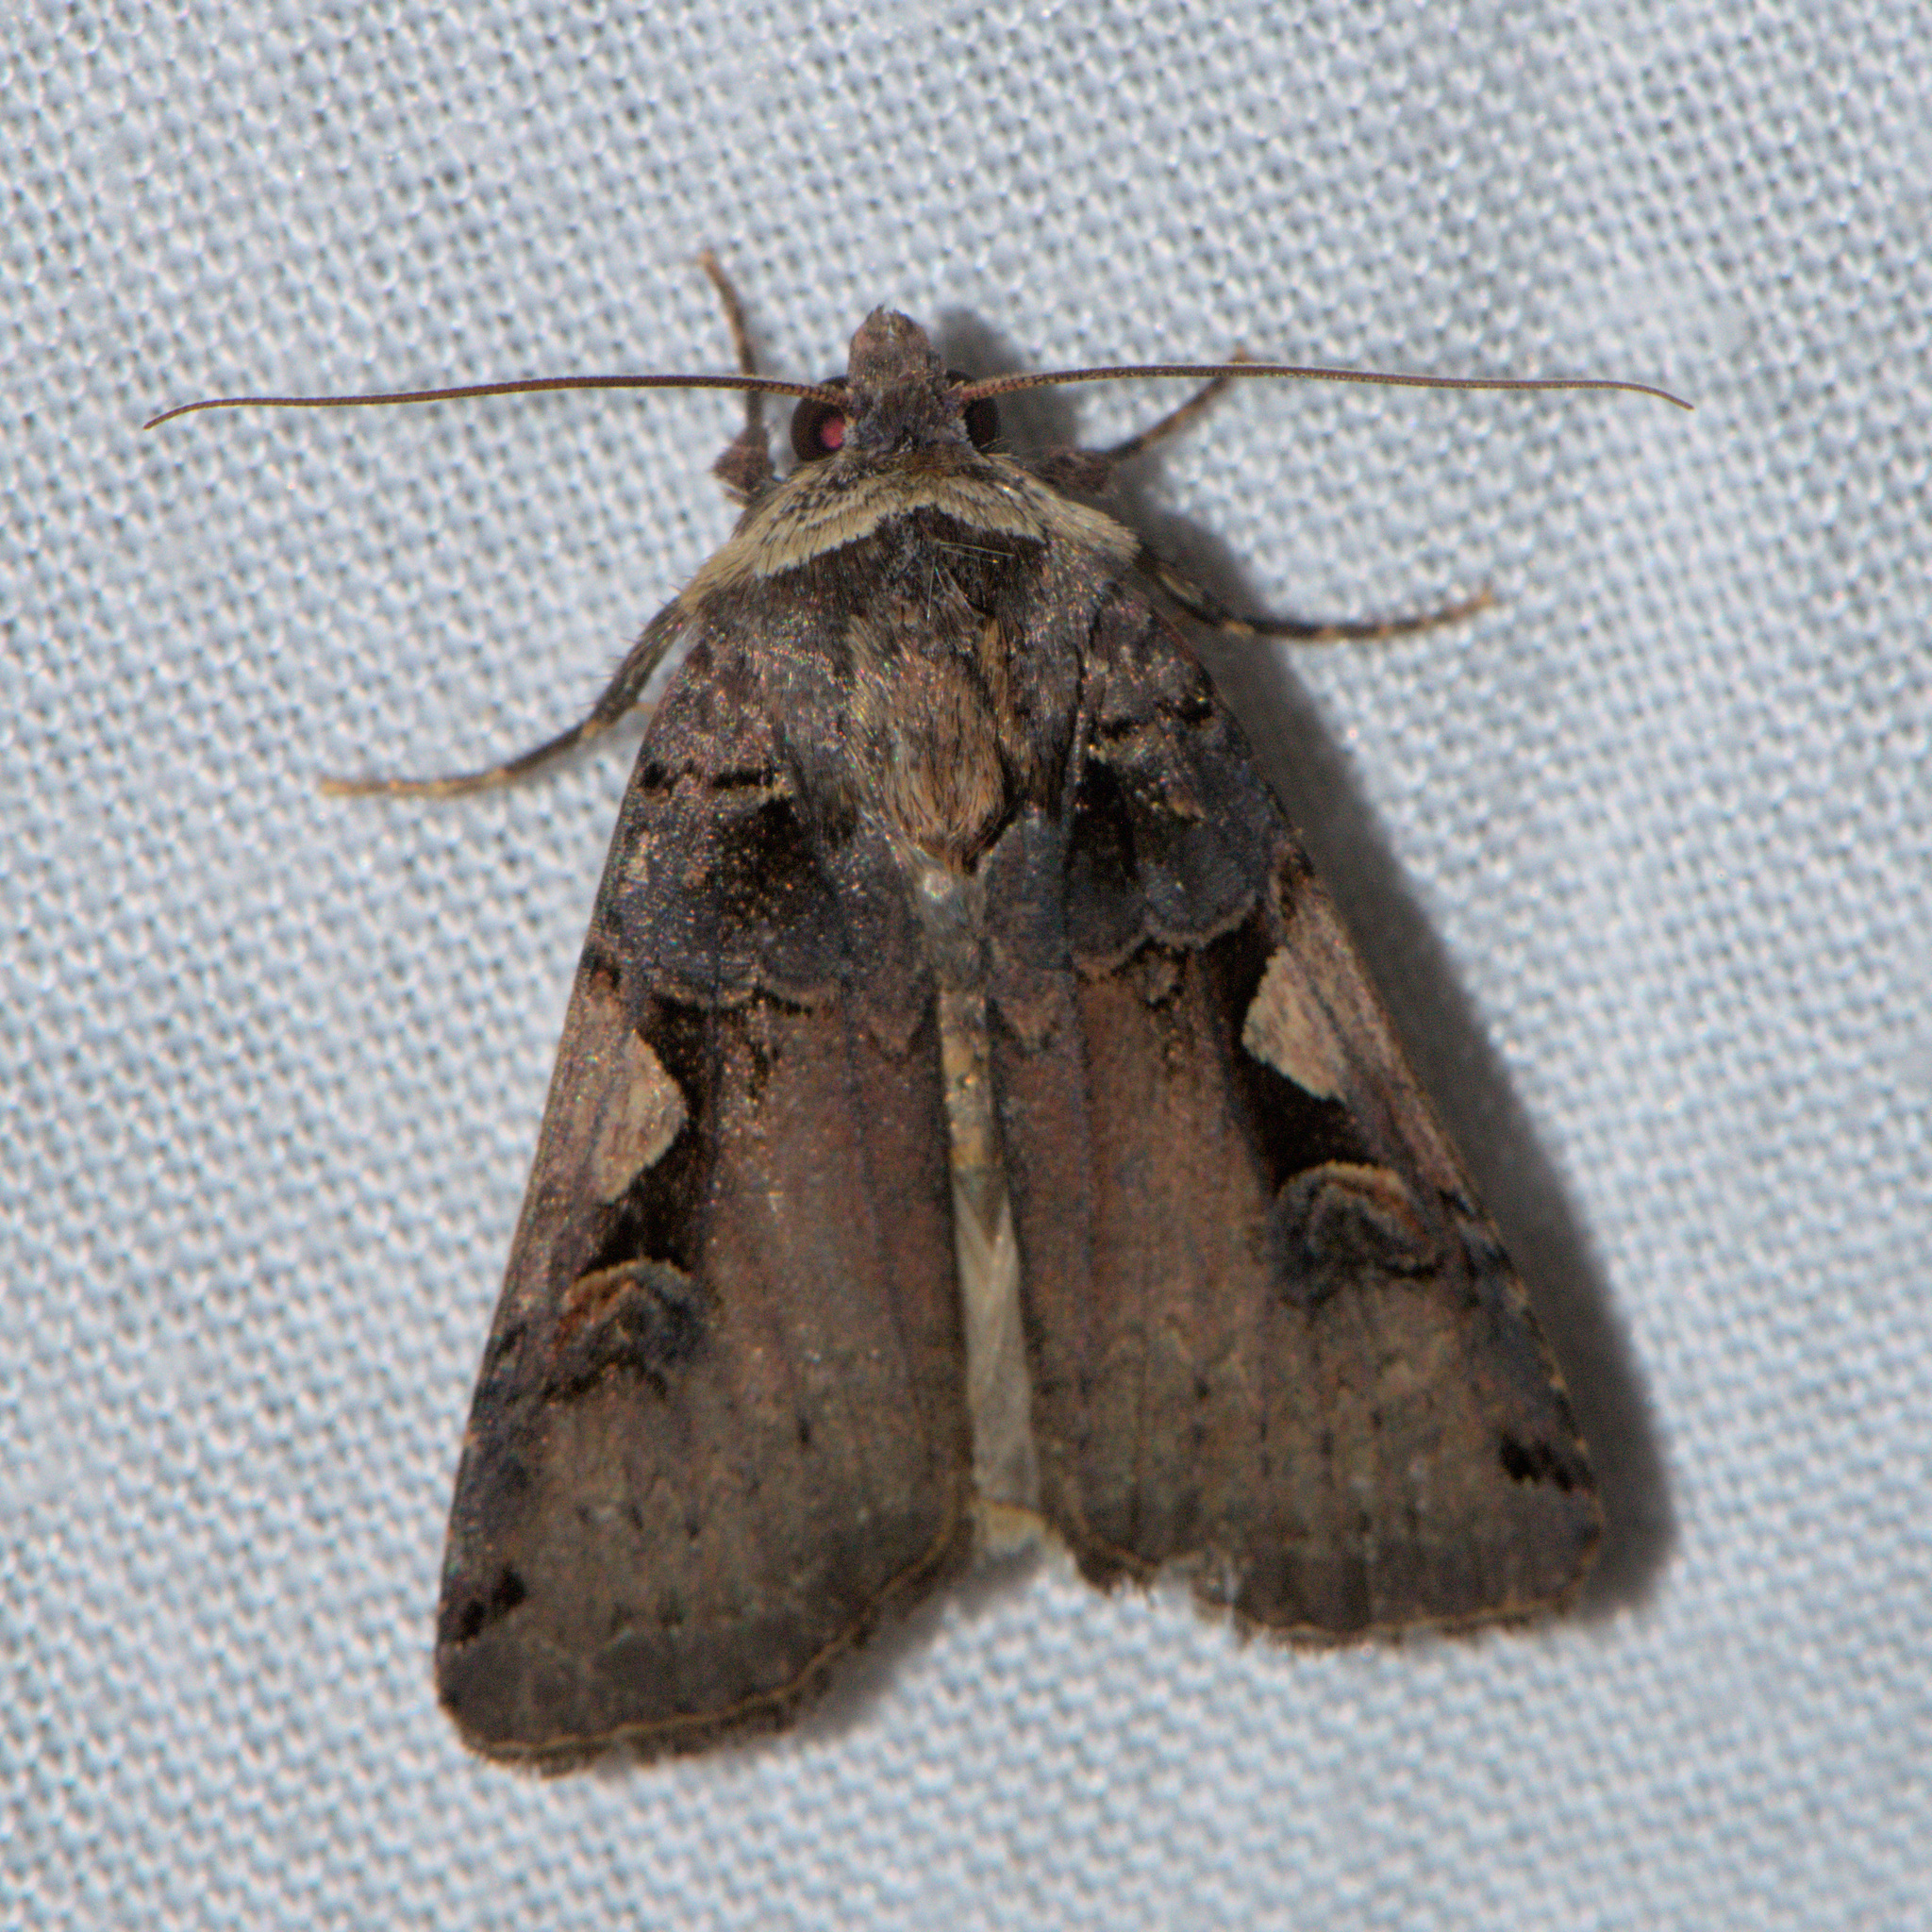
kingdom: Animalia
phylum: Arthropoda
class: Insecta
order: Lepidoptera
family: Noctuidae
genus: Xestia
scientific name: Xestia c-nigrum
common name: Setaceous hebrew character
